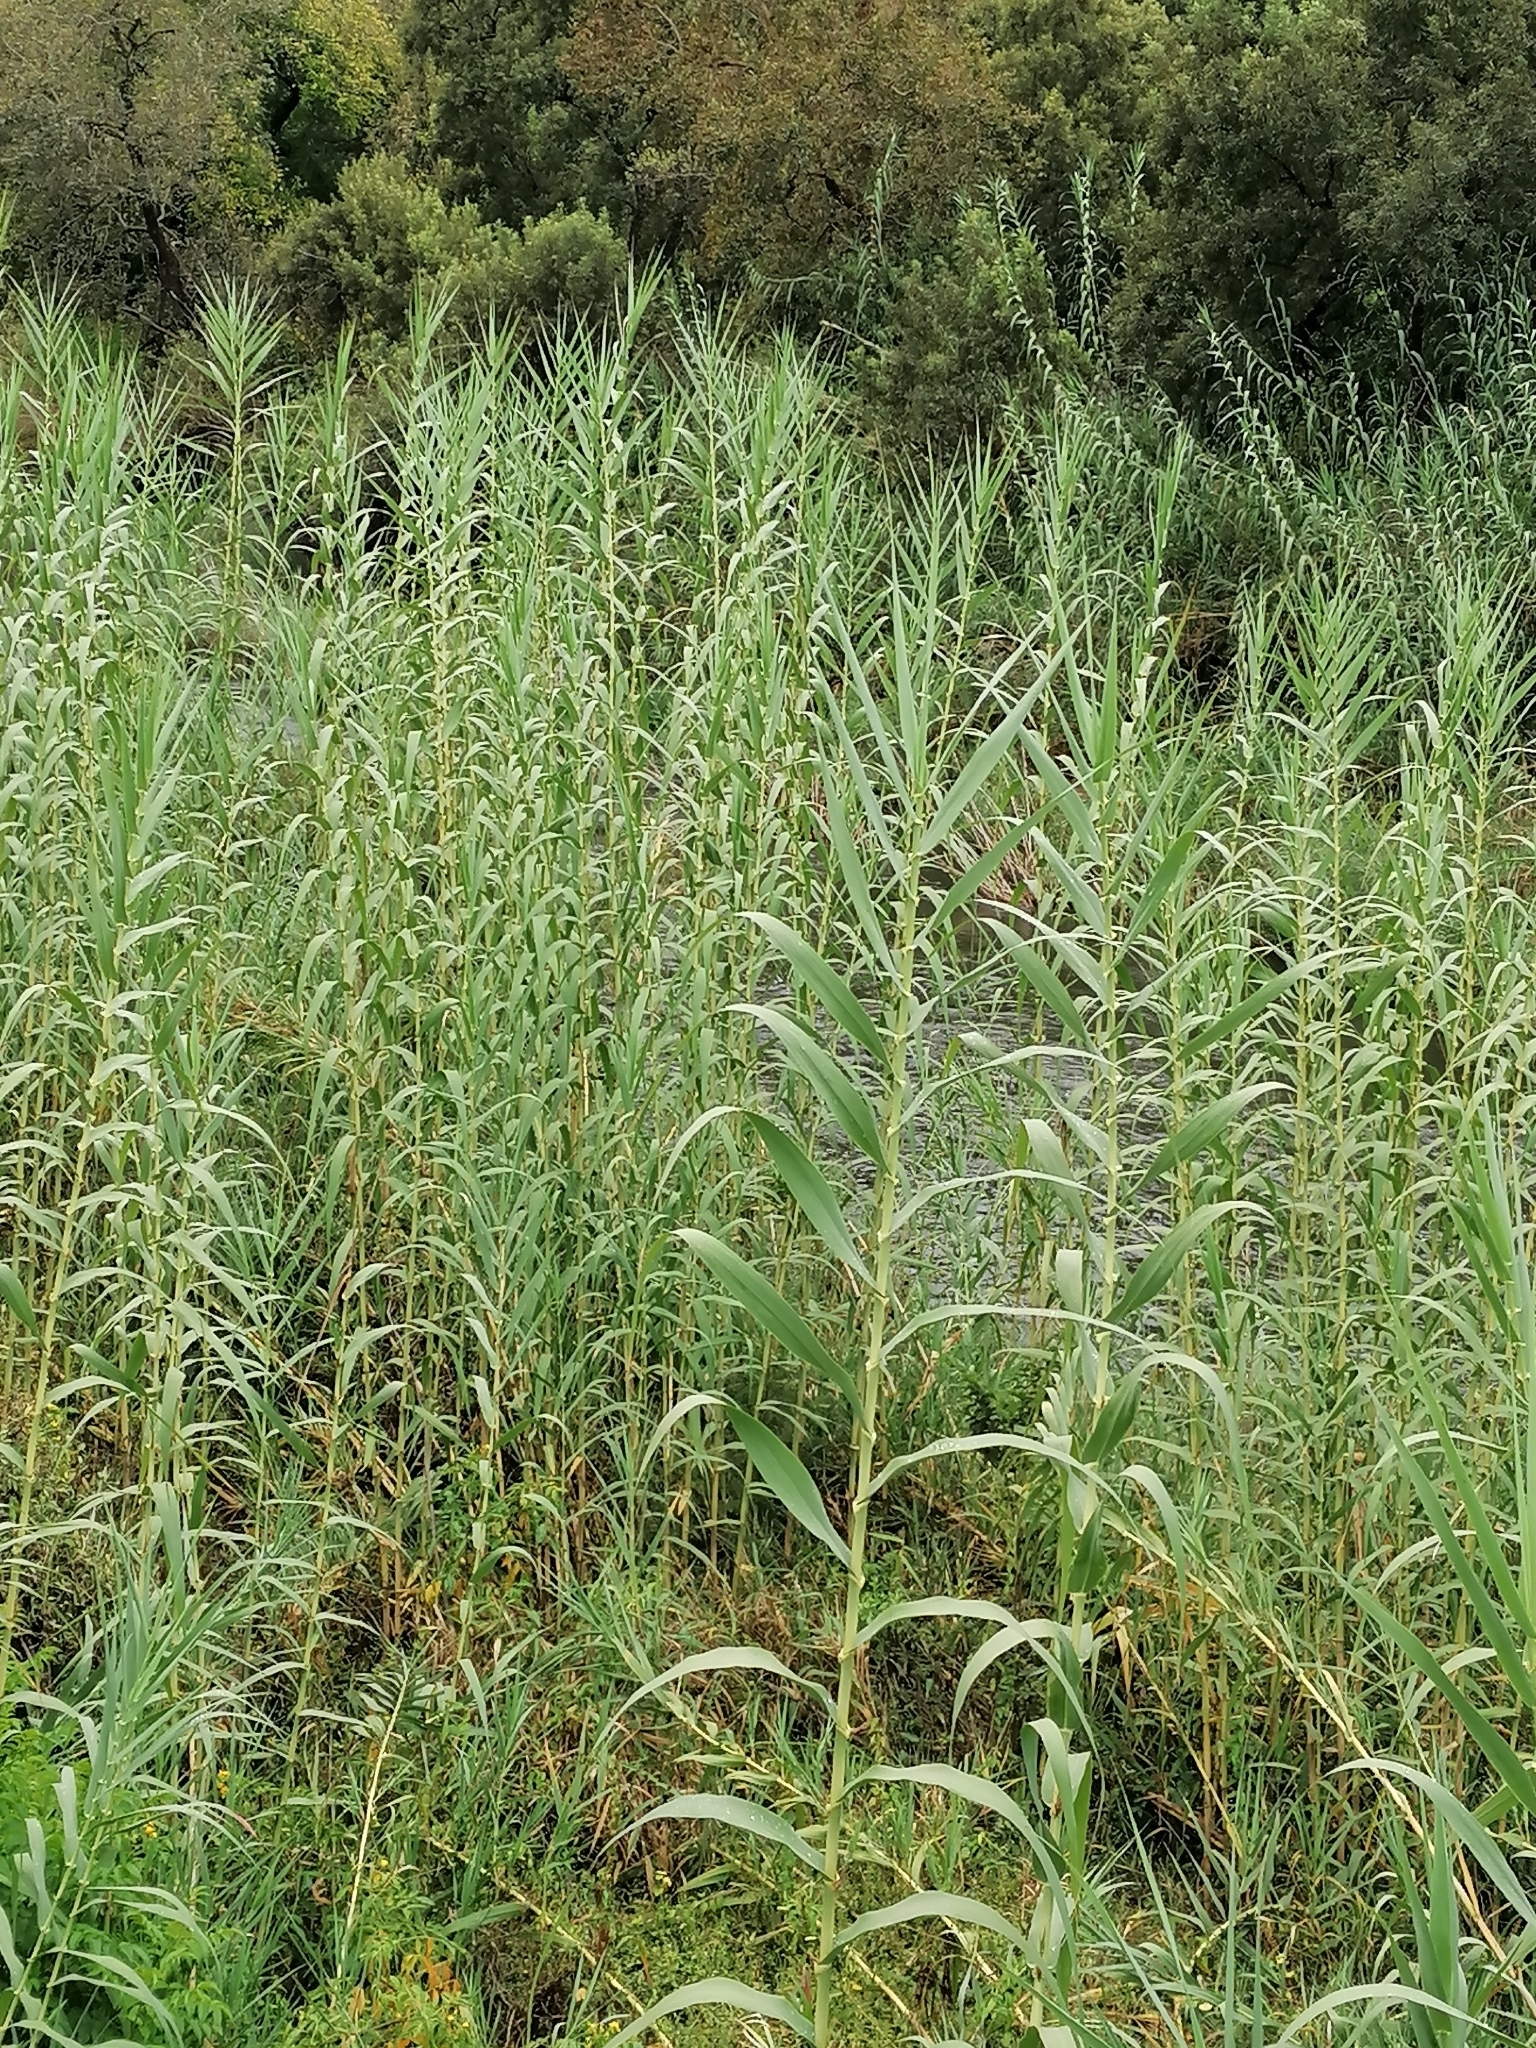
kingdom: Plantae
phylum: Tracheophyta
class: Liliopsida
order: Poales
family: Poaceae
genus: Arundo
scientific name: Arundo donax
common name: Giant reed
